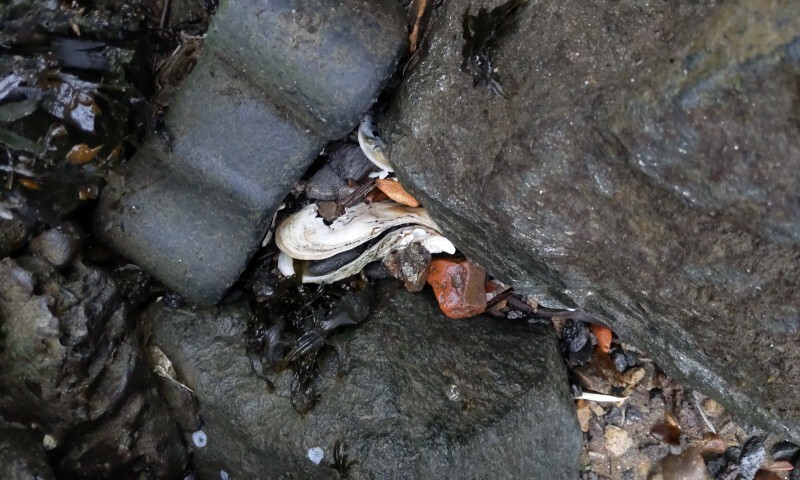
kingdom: Animalia
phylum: Mollusca
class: Bivalvia
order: Ostreida
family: Ostreidae
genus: Crassostrea
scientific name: Crassostrea virginica
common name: American oyster
